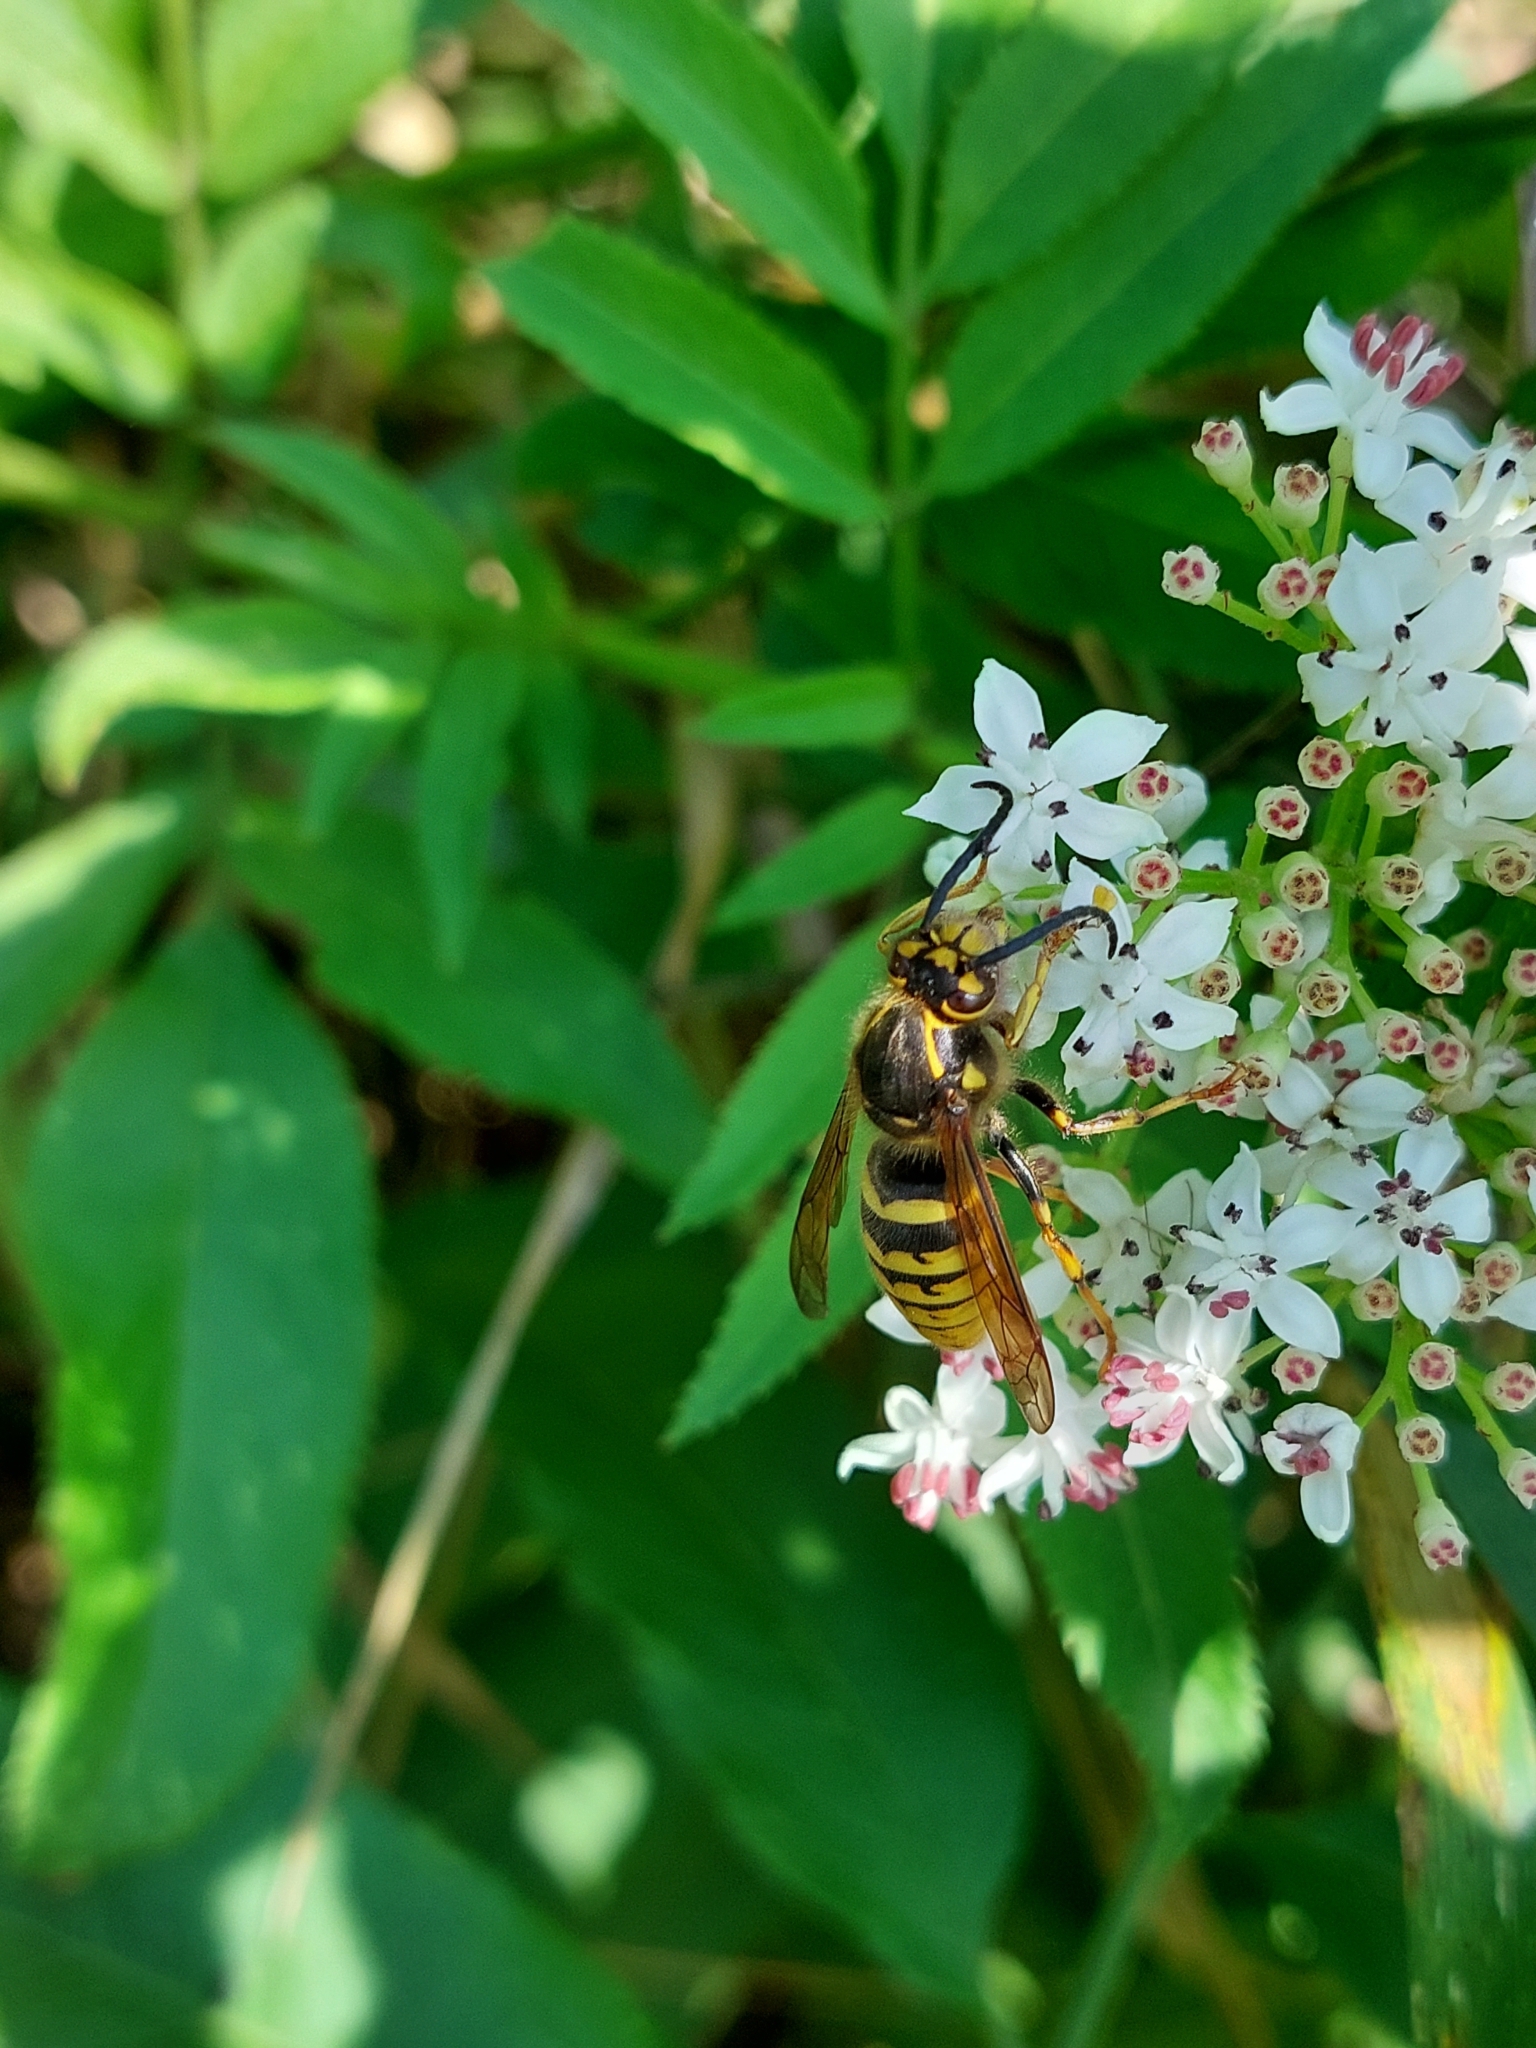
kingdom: Animalia
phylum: Arthropoda
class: Insecta
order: Hymenoptera
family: Vespidae
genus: Dolichovespula
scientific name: Dolichovespula media
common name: Median wasp
